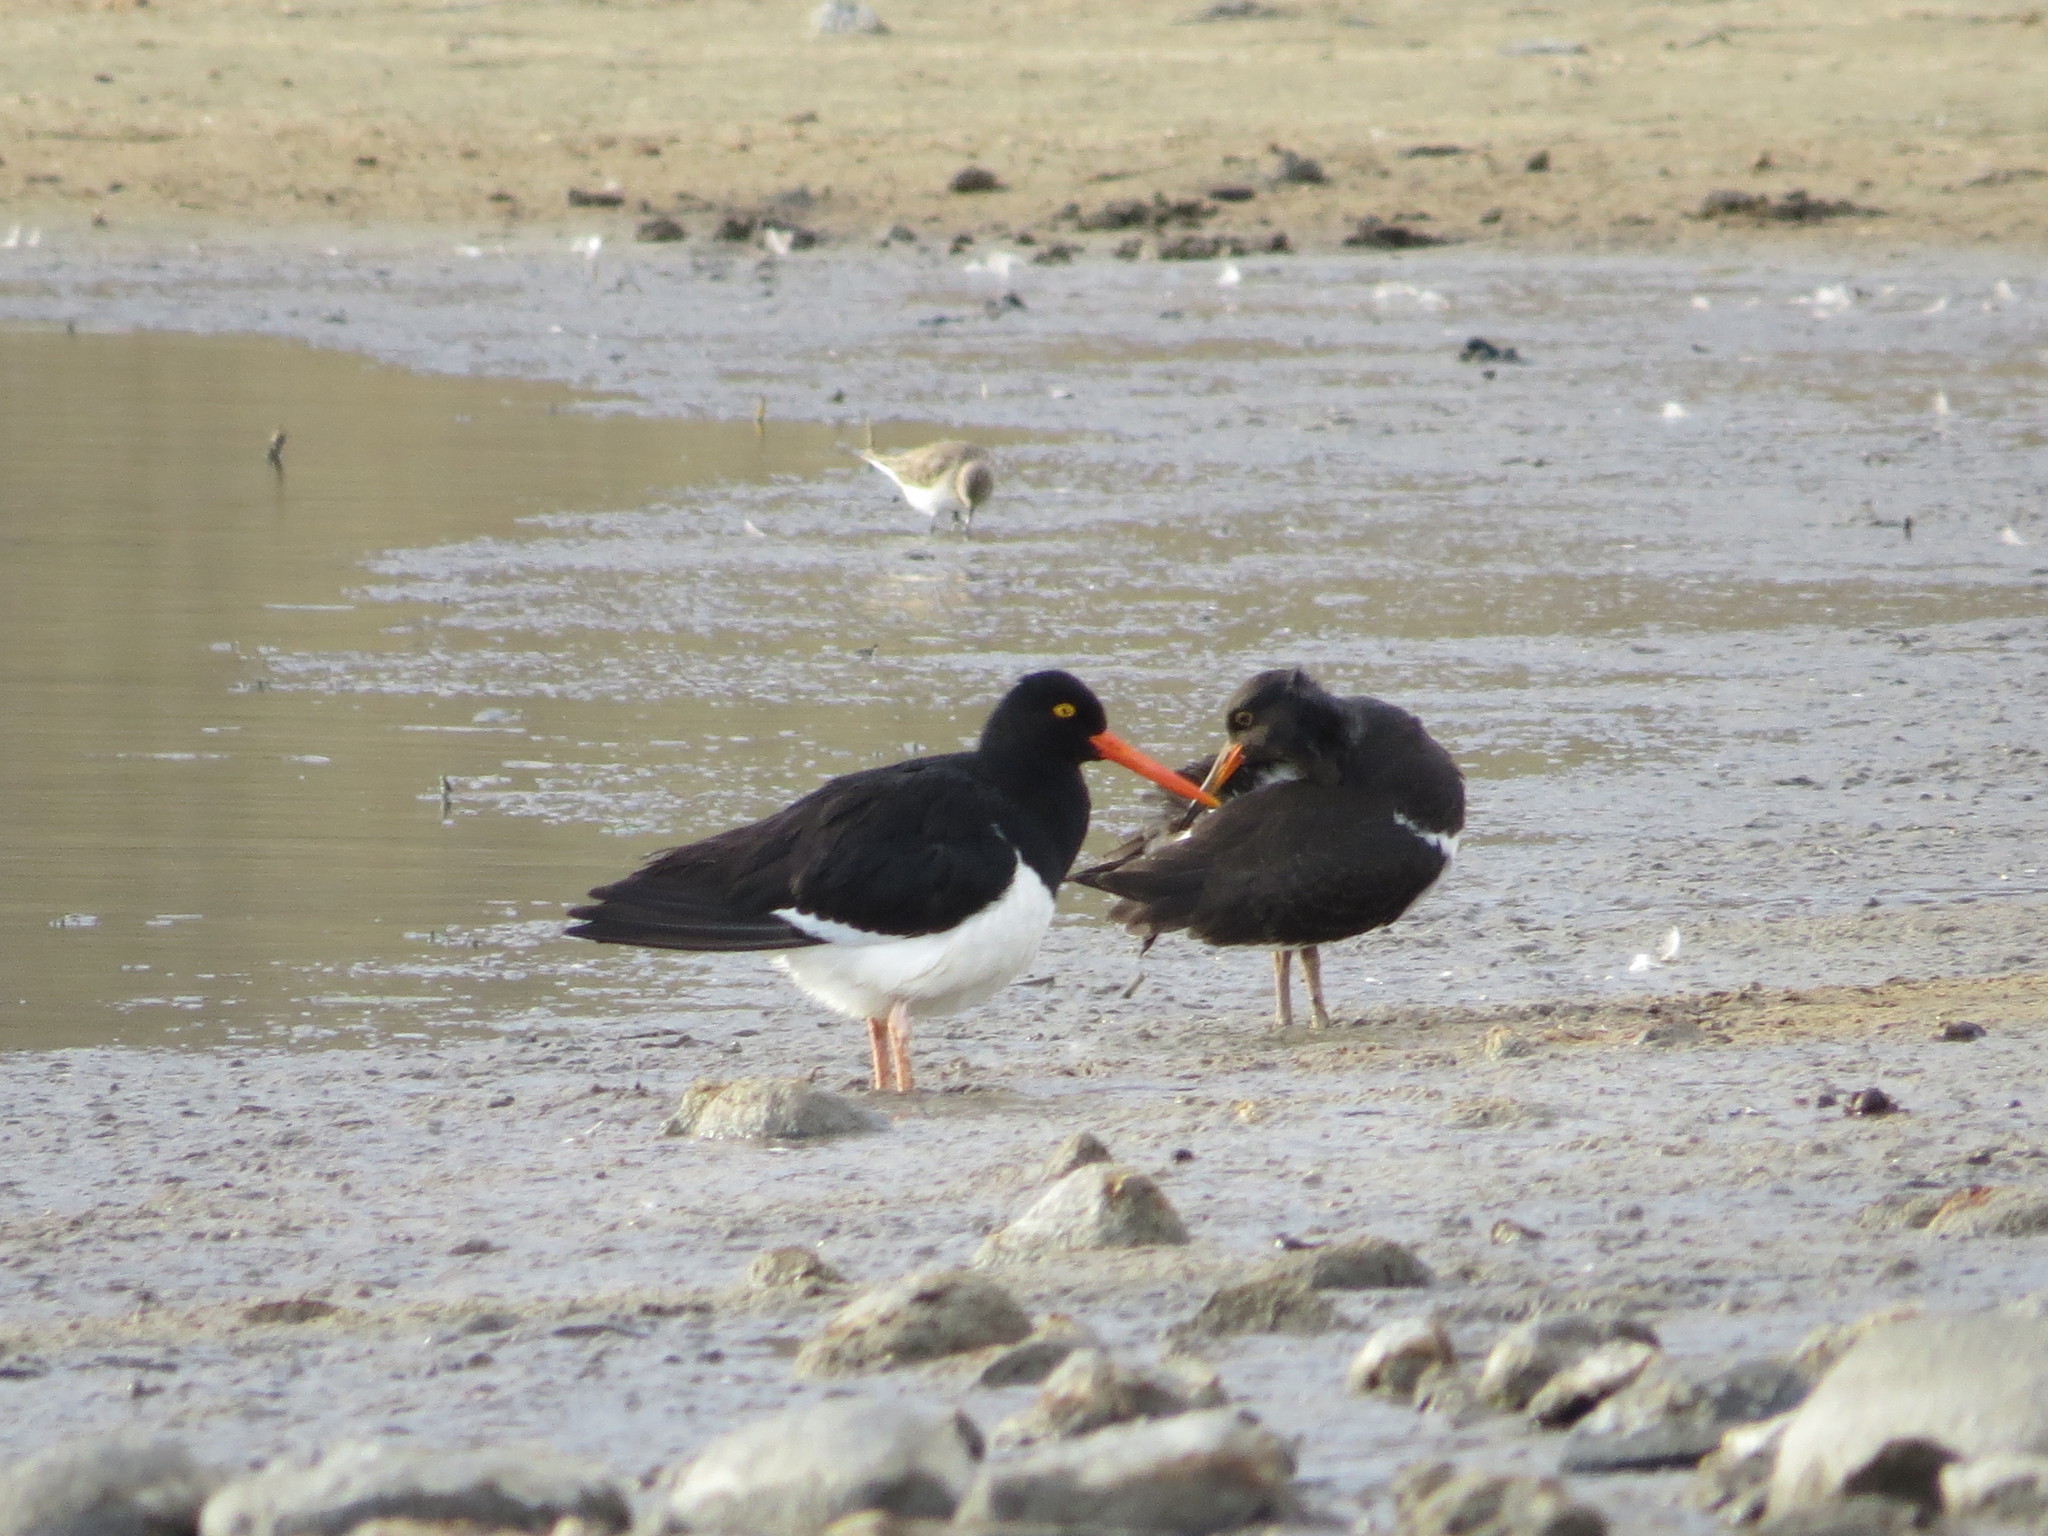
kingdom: Animalia
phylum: Chordata
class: Aves
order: Charadriiformes
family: Haematopodidae
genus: Haematopus
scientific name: Haematopus leucopodus
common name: Magellanic oystercatcher
